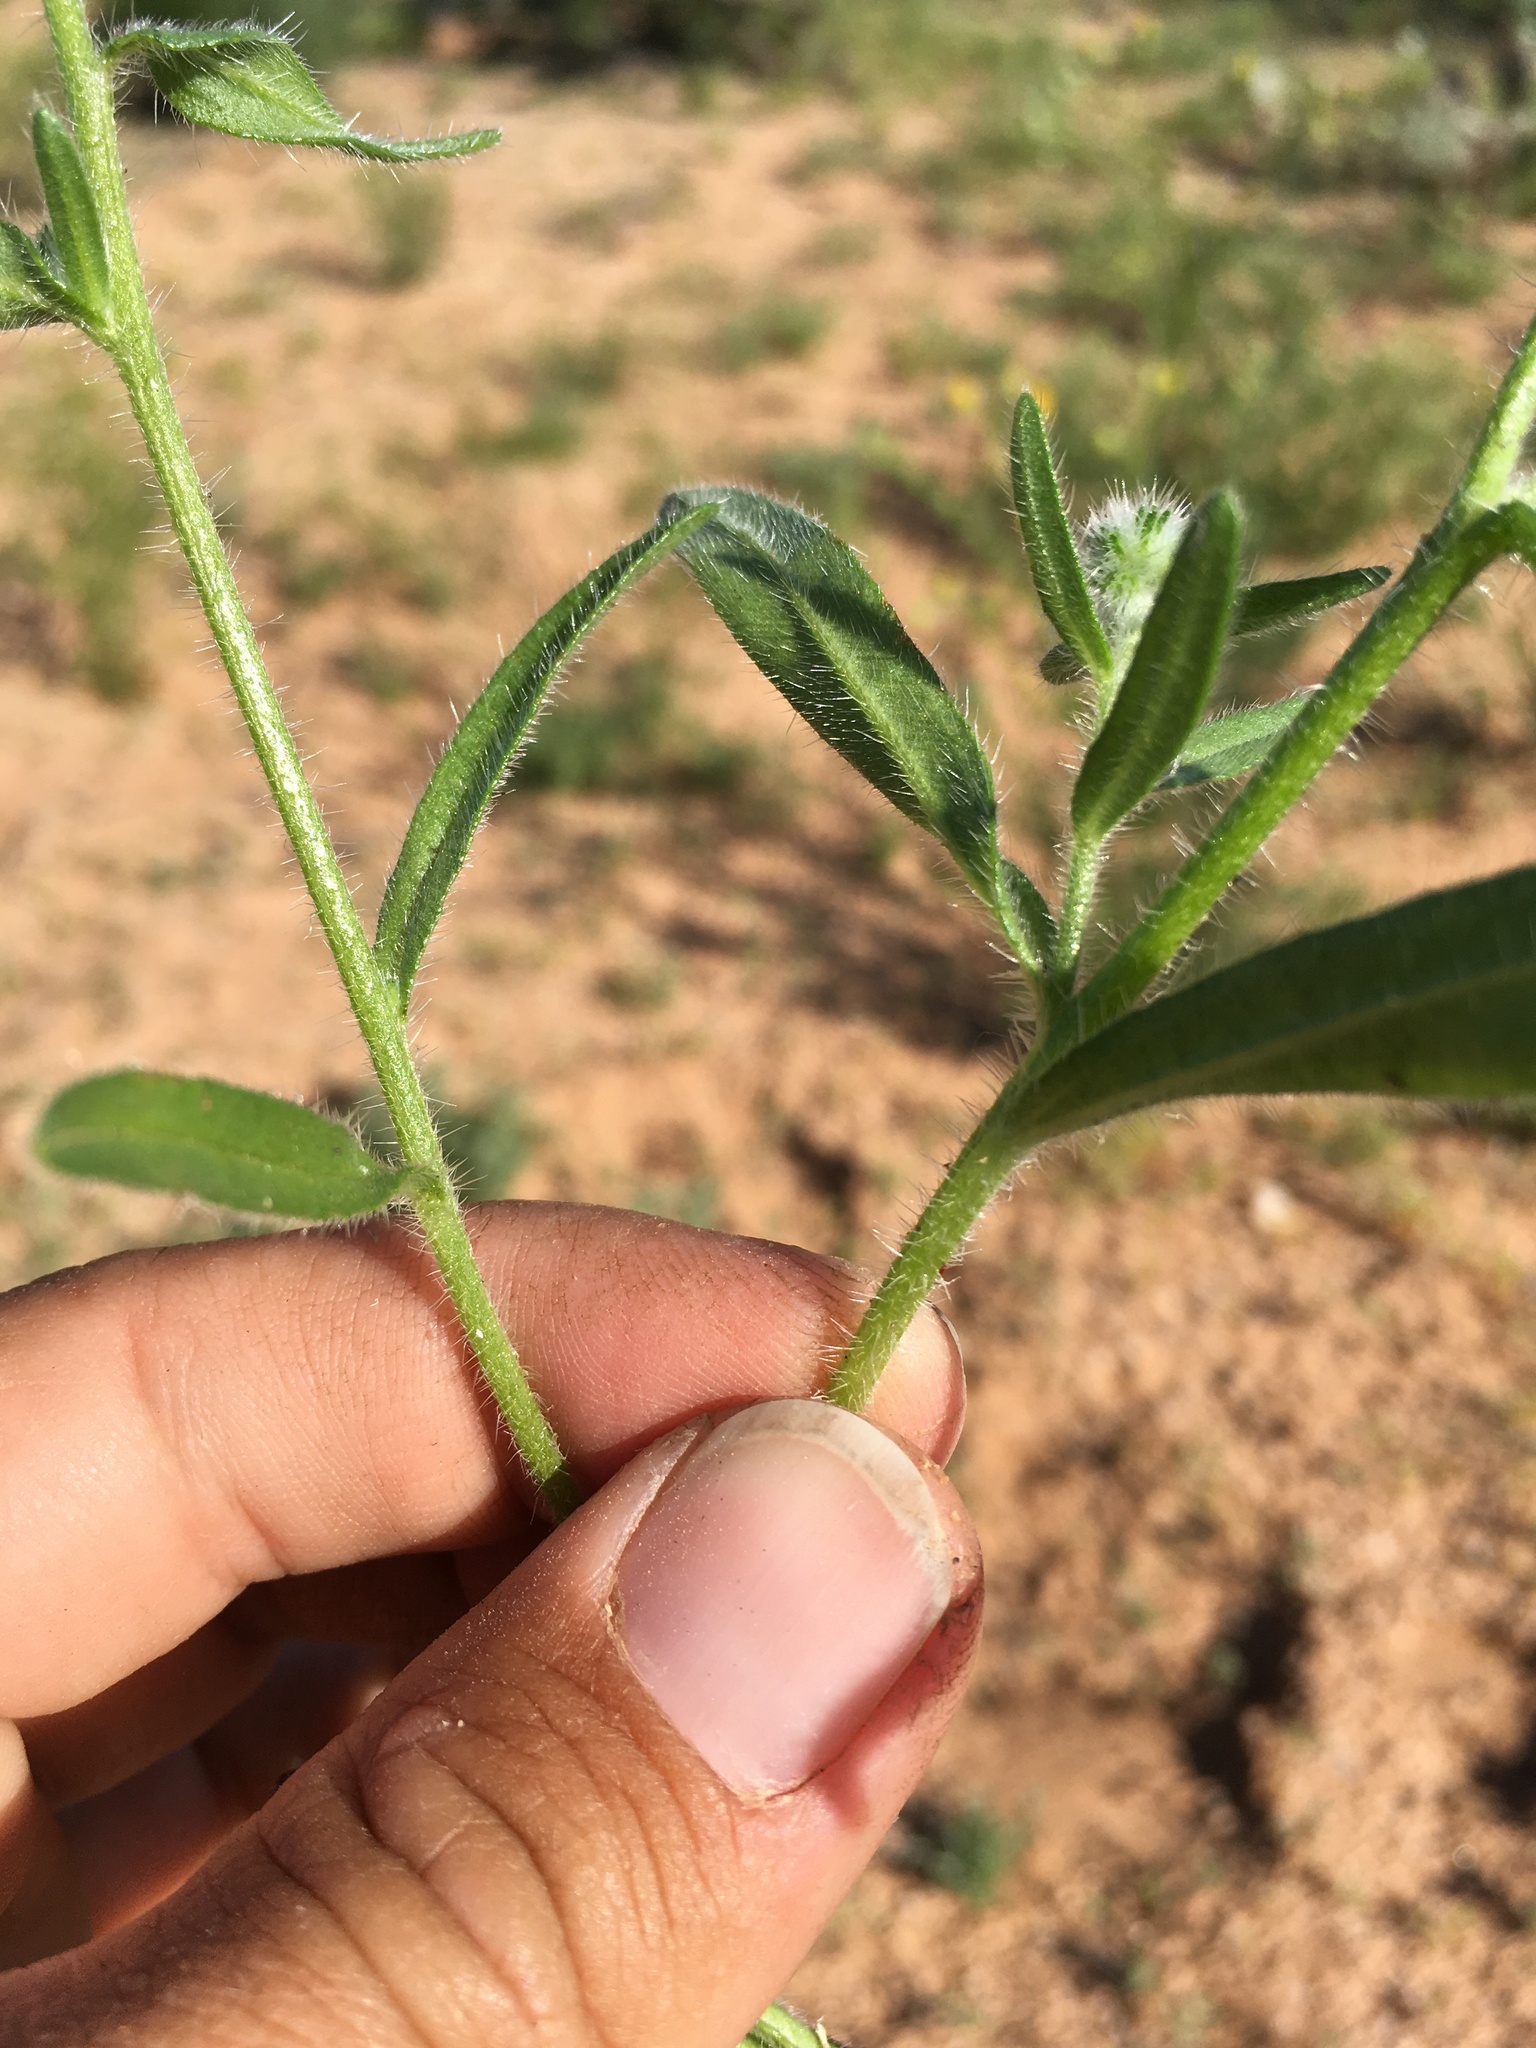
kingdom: Plantae
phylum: Tracheophyta
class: Magnoliopsida
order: Boraginales
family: Boraginaceae
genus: Cryptantha
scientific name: Cryptantha barbigera
